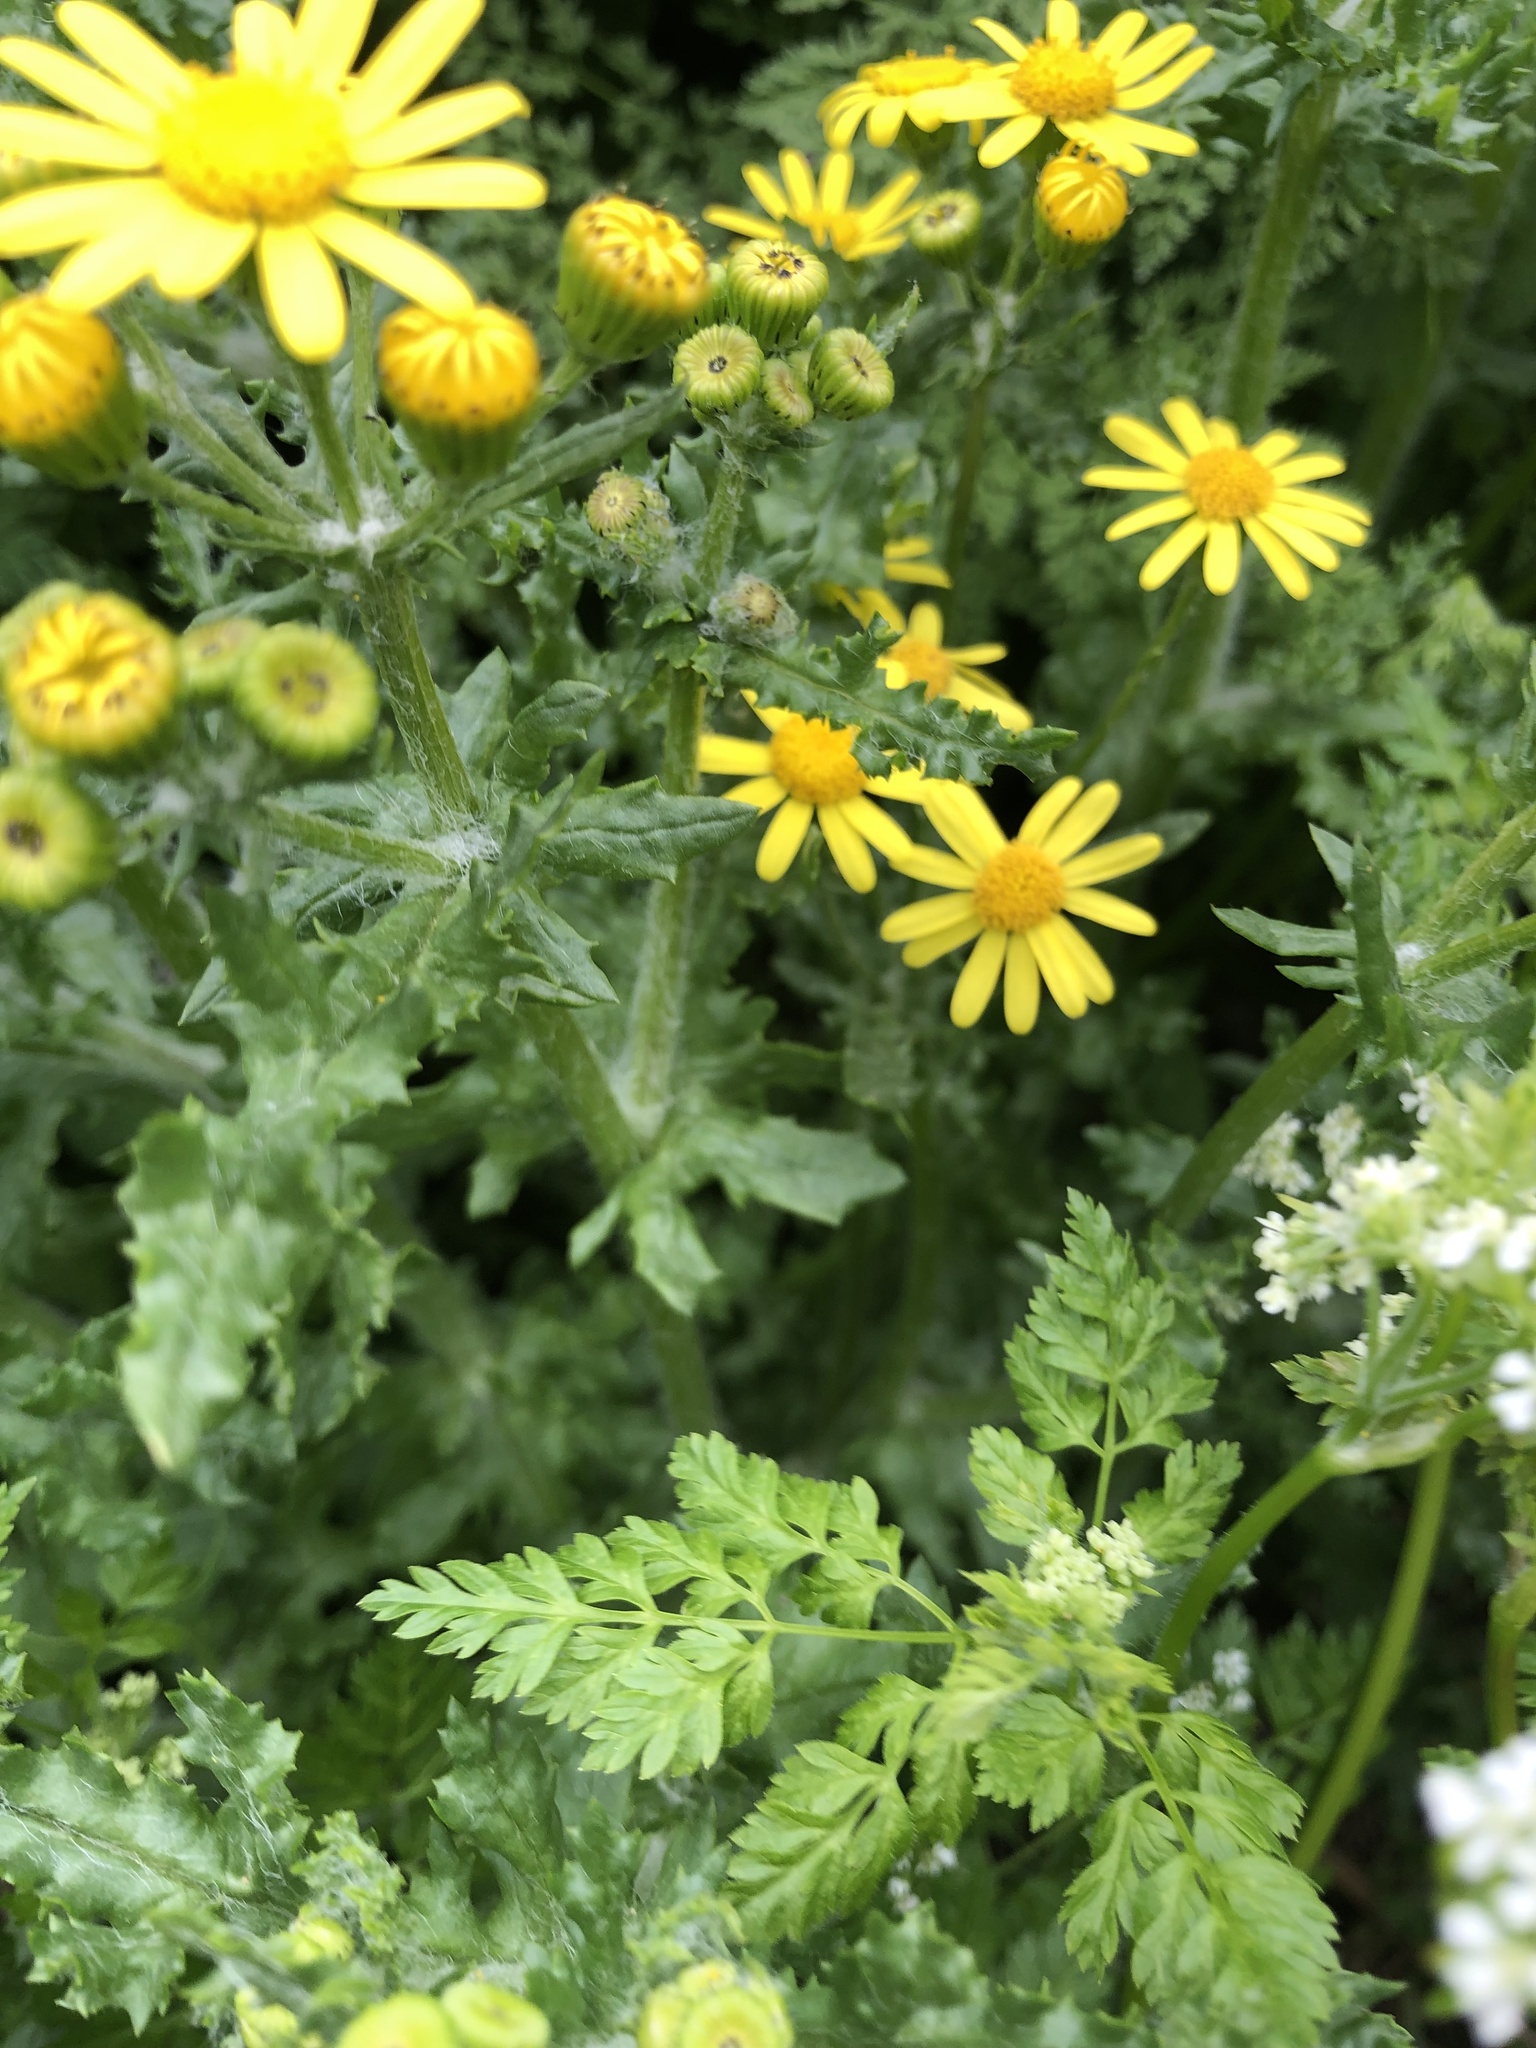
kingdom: Plantae
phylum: Tracheophyta
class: Magnoliopsida
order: Asterales
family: Asteraceae
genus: Senecio
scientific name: Senecio vernalis
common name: Eastern groundsel
